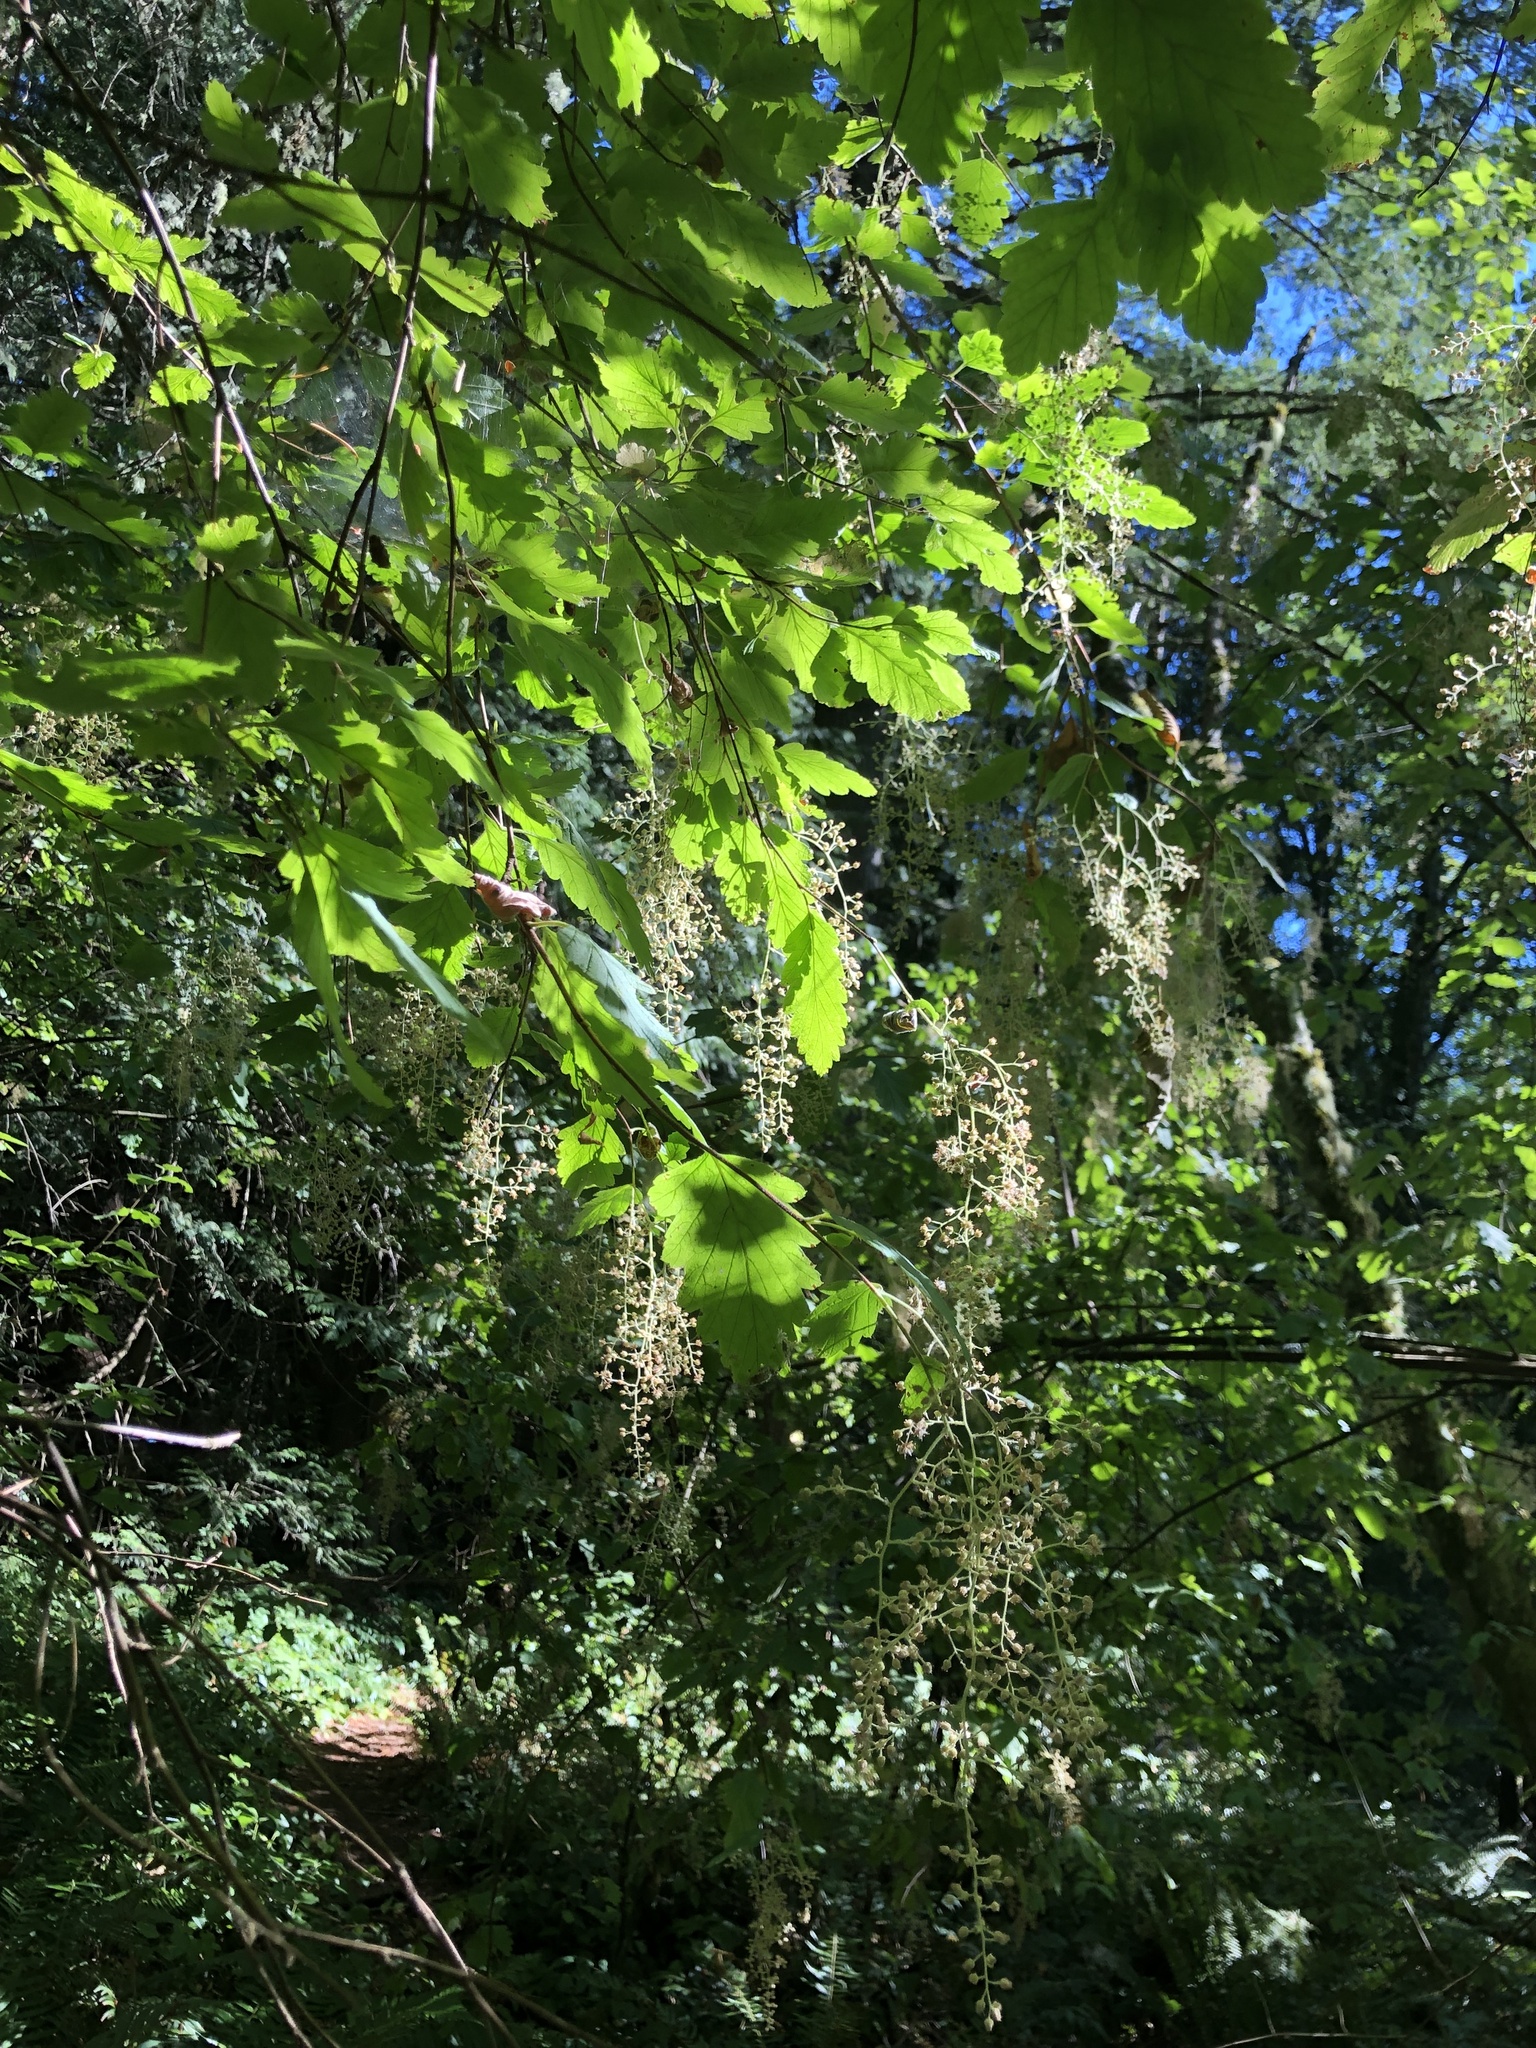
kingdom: Plantae
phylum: Tracheophyta
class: Magnoliopsida
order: Rosales
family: Rosaceae
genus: Holodiscus
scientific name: Holodiscus discolor
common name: Oceanspray
